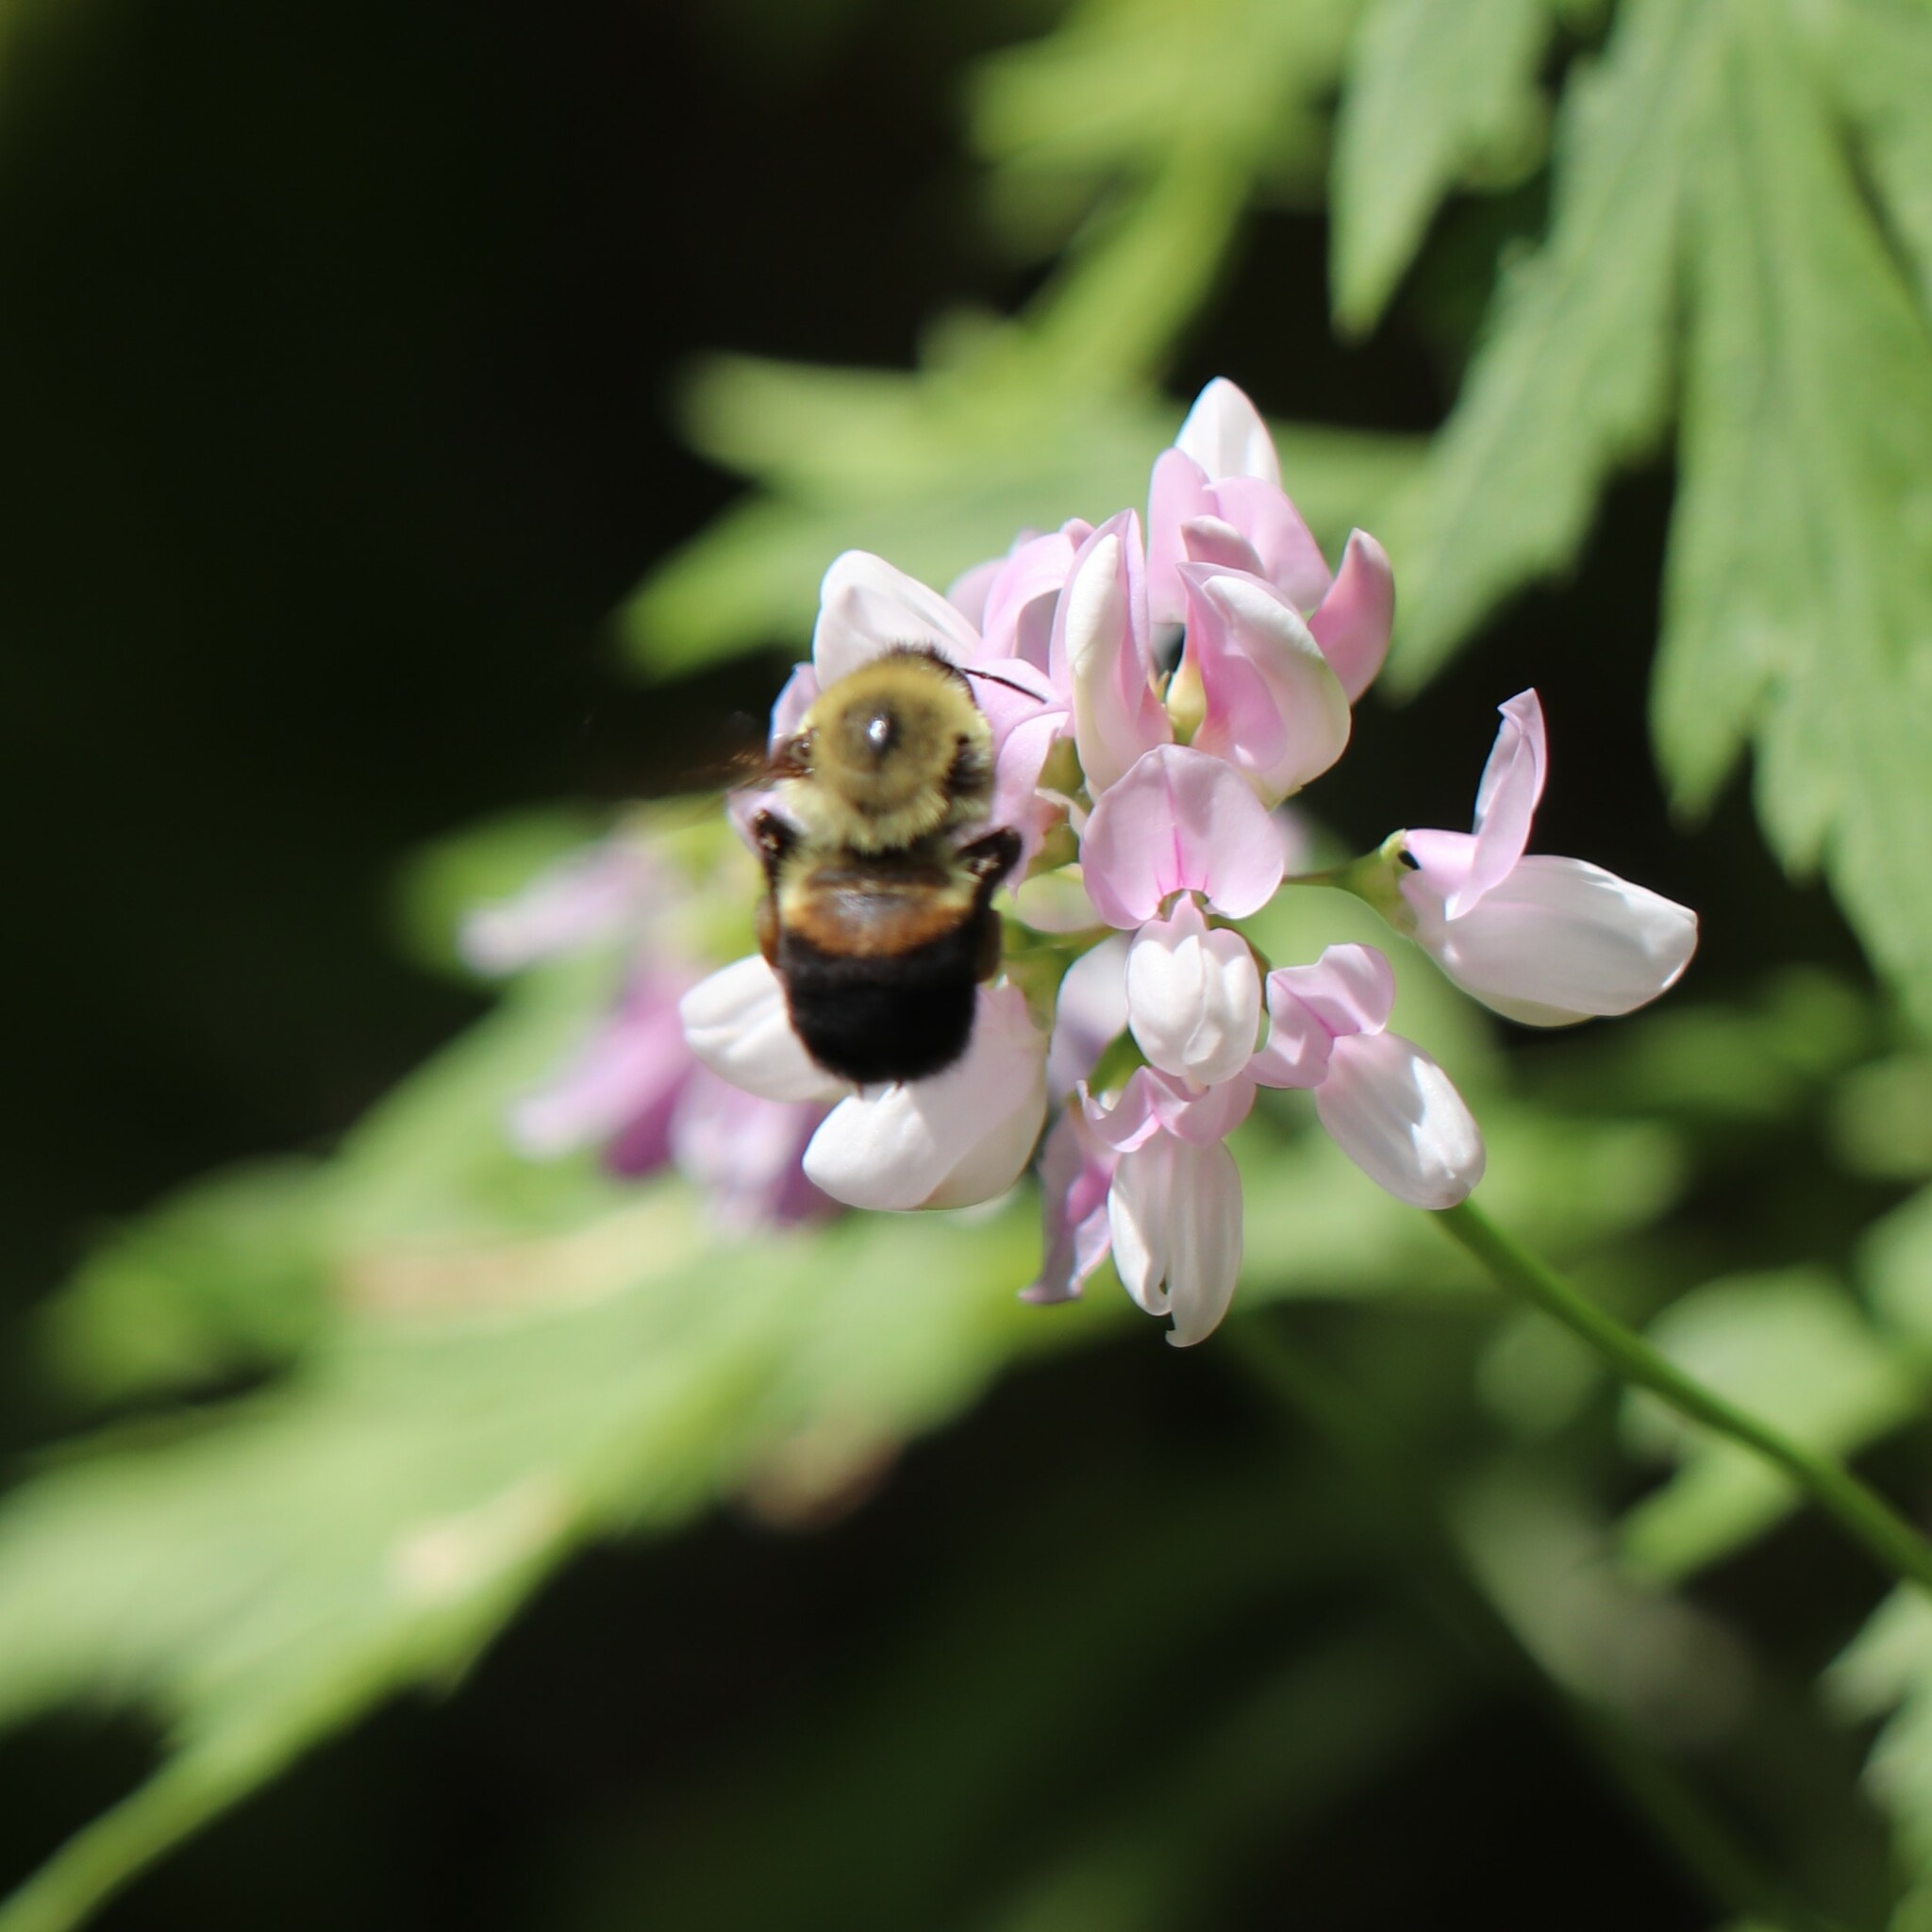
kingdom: Animalia
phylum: Arthropoda
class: Insecta
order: Hymenoptera
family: Apidae
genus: Bombus
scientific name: Bombus griseocollis
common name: Brown-belted bumble bee
